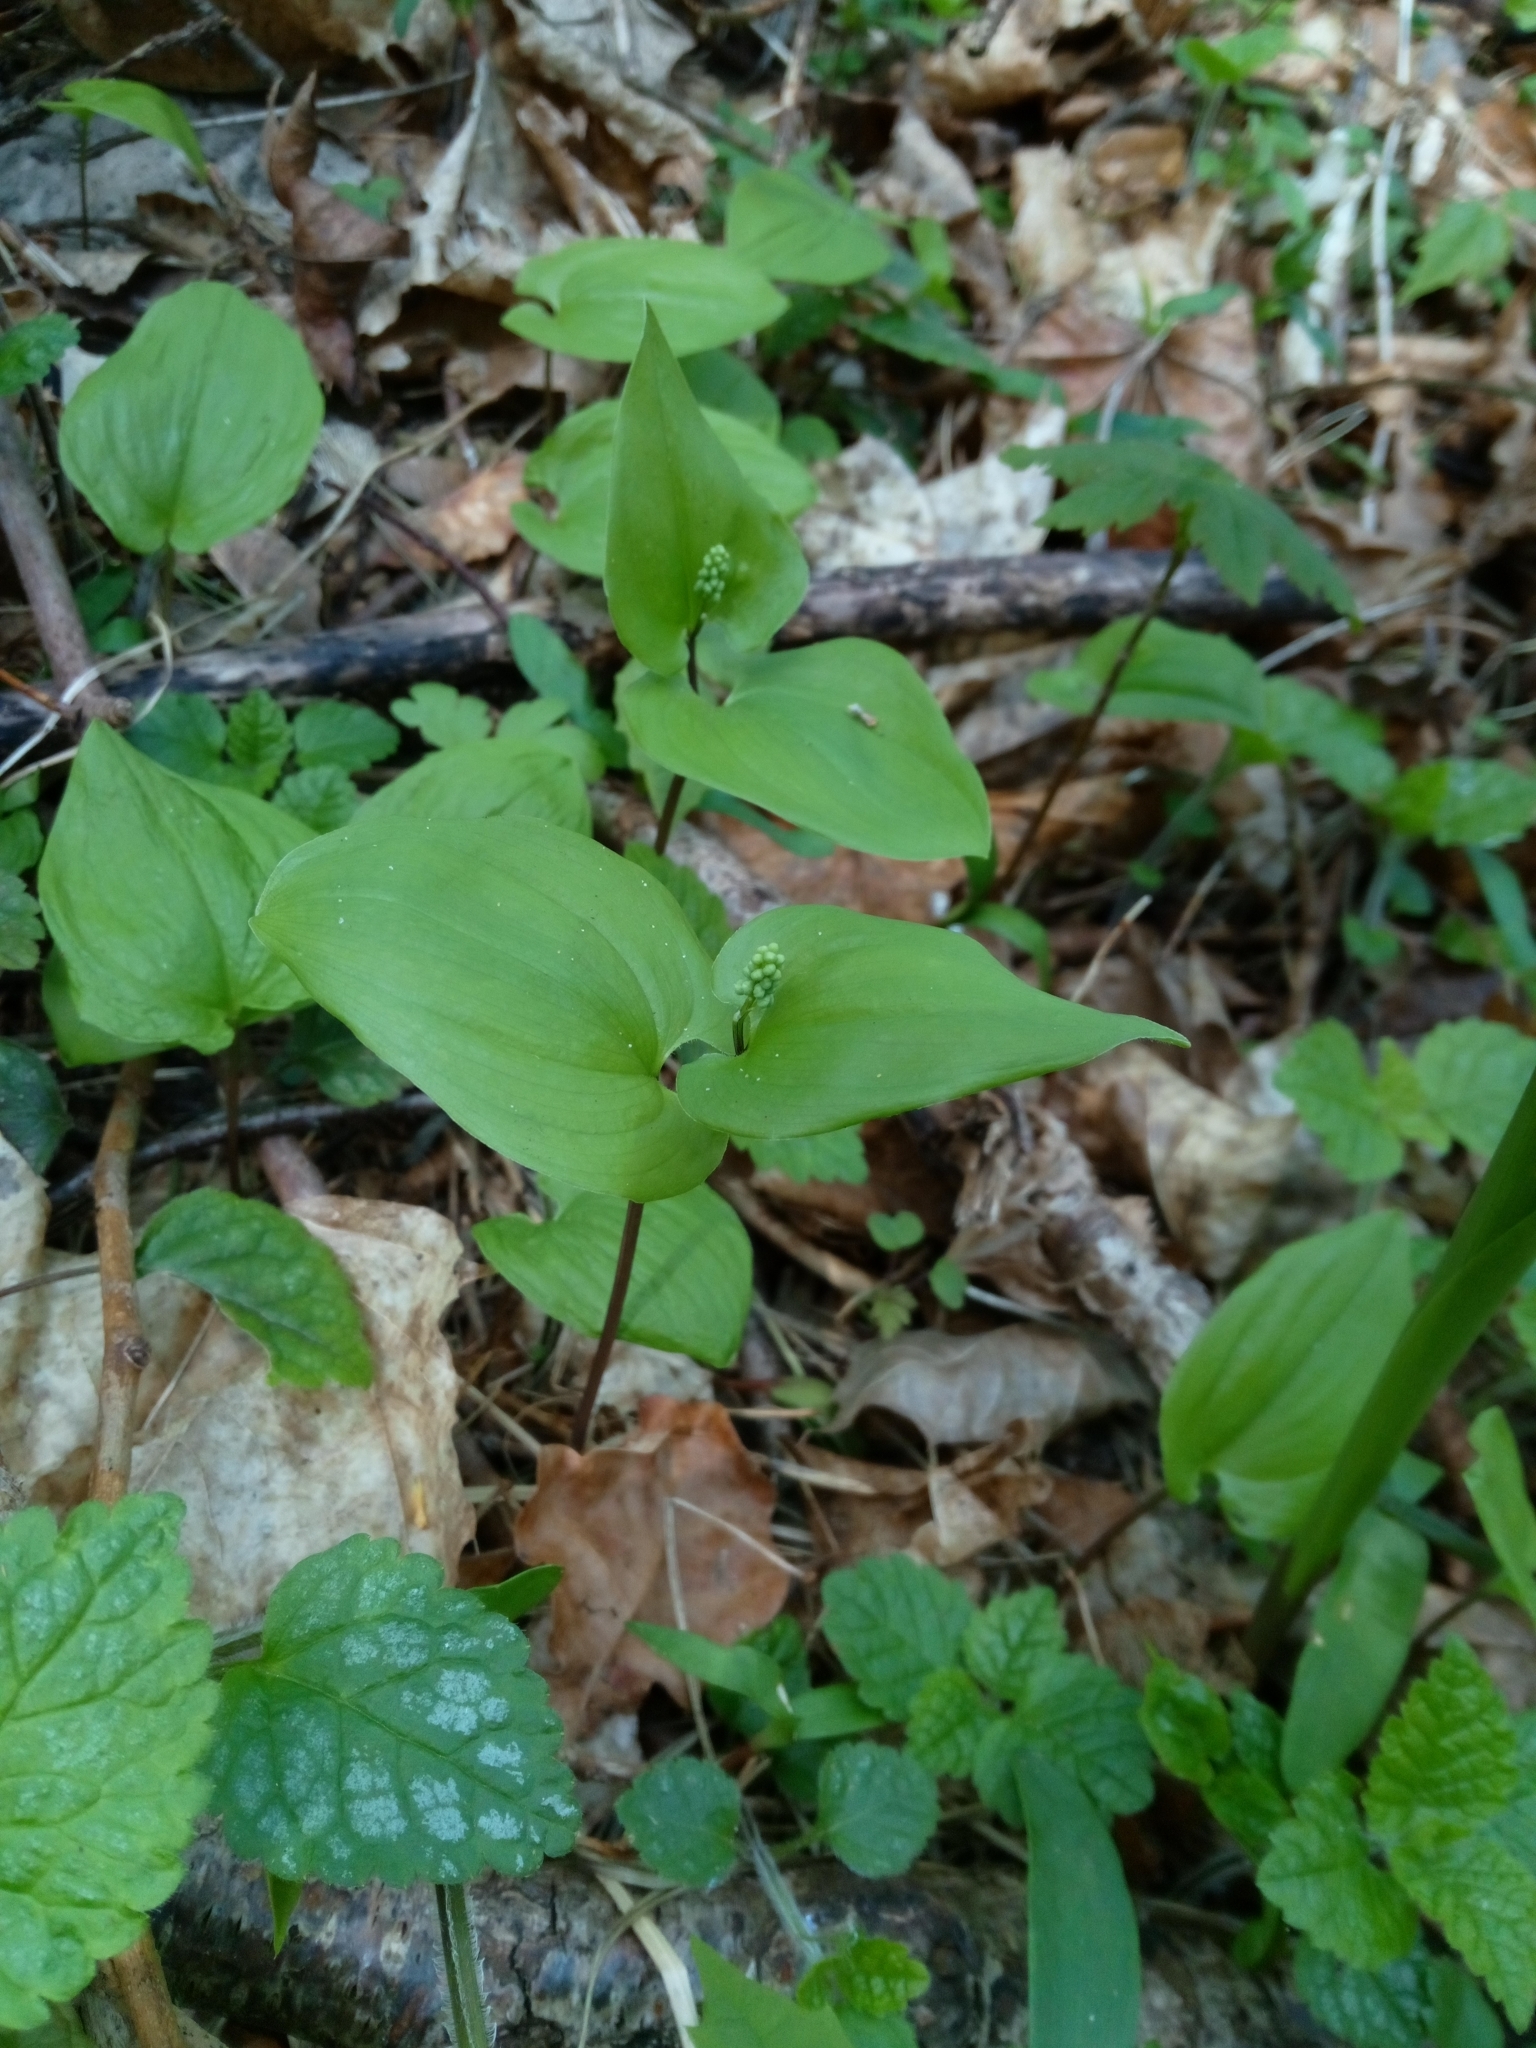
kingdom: Plantae
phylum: Tracheophyta
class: Liliopsida
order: Asparagales
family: Asparagaceae
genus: Maianthemum
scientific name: Maianthemum bifolium
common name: May lily
